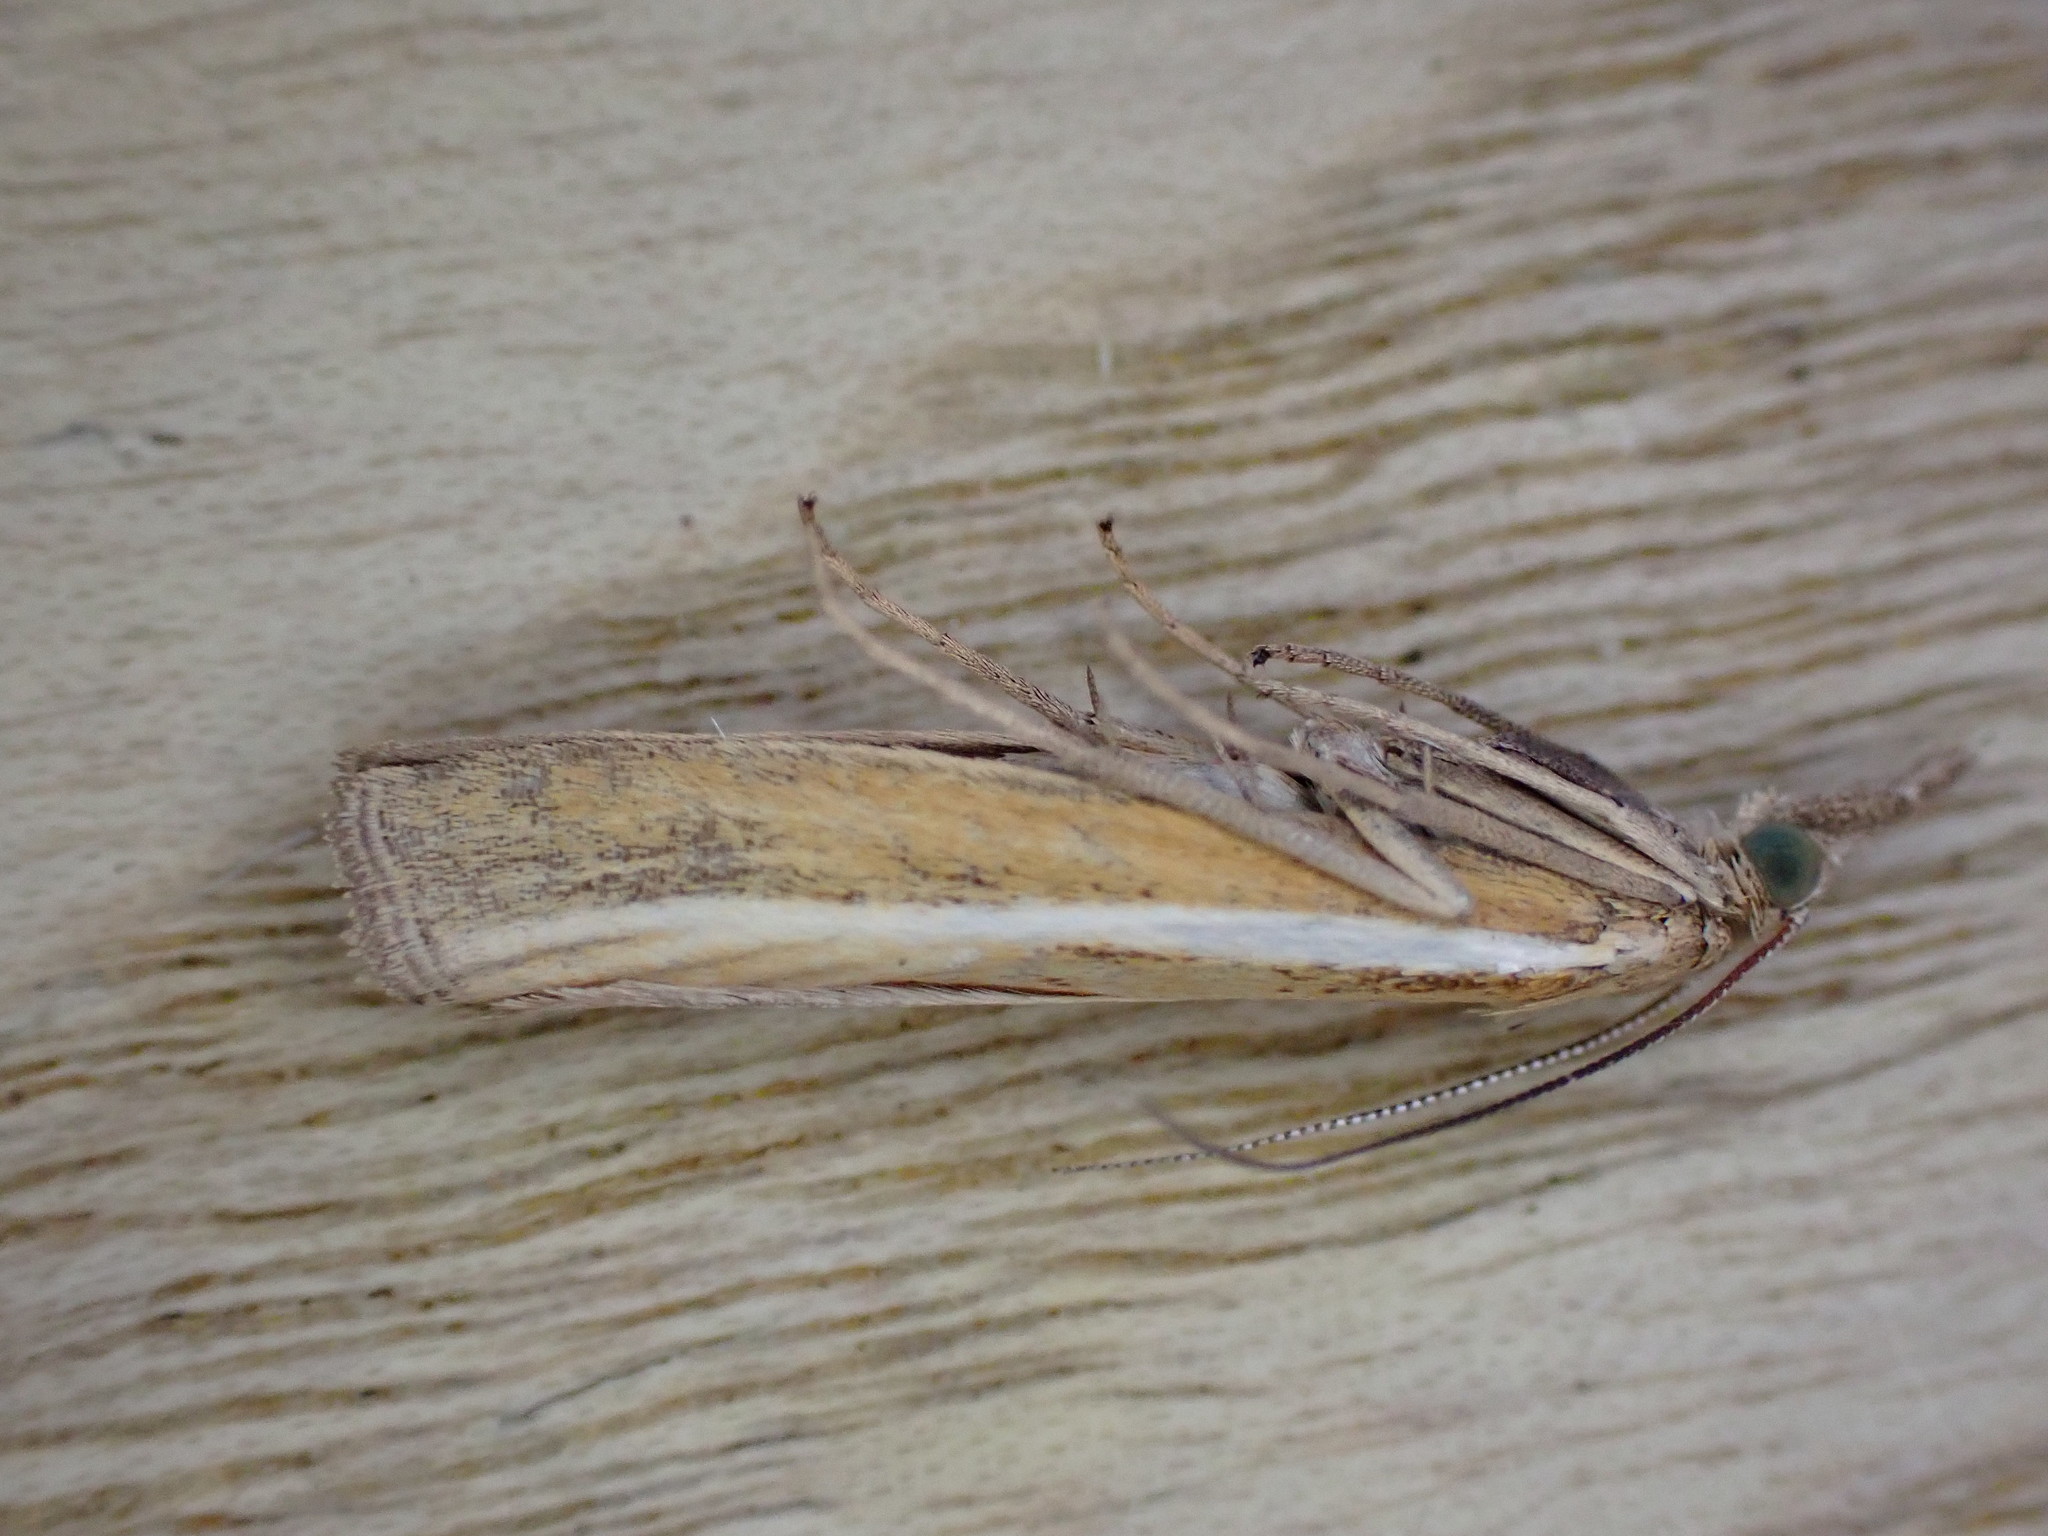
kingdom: Animalia
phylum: Arthropoda
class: Insecta
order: Lepidoptera
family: Crambidae
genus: Agriphila
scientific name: Agriphila tristellus
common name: Common grass-veneer
